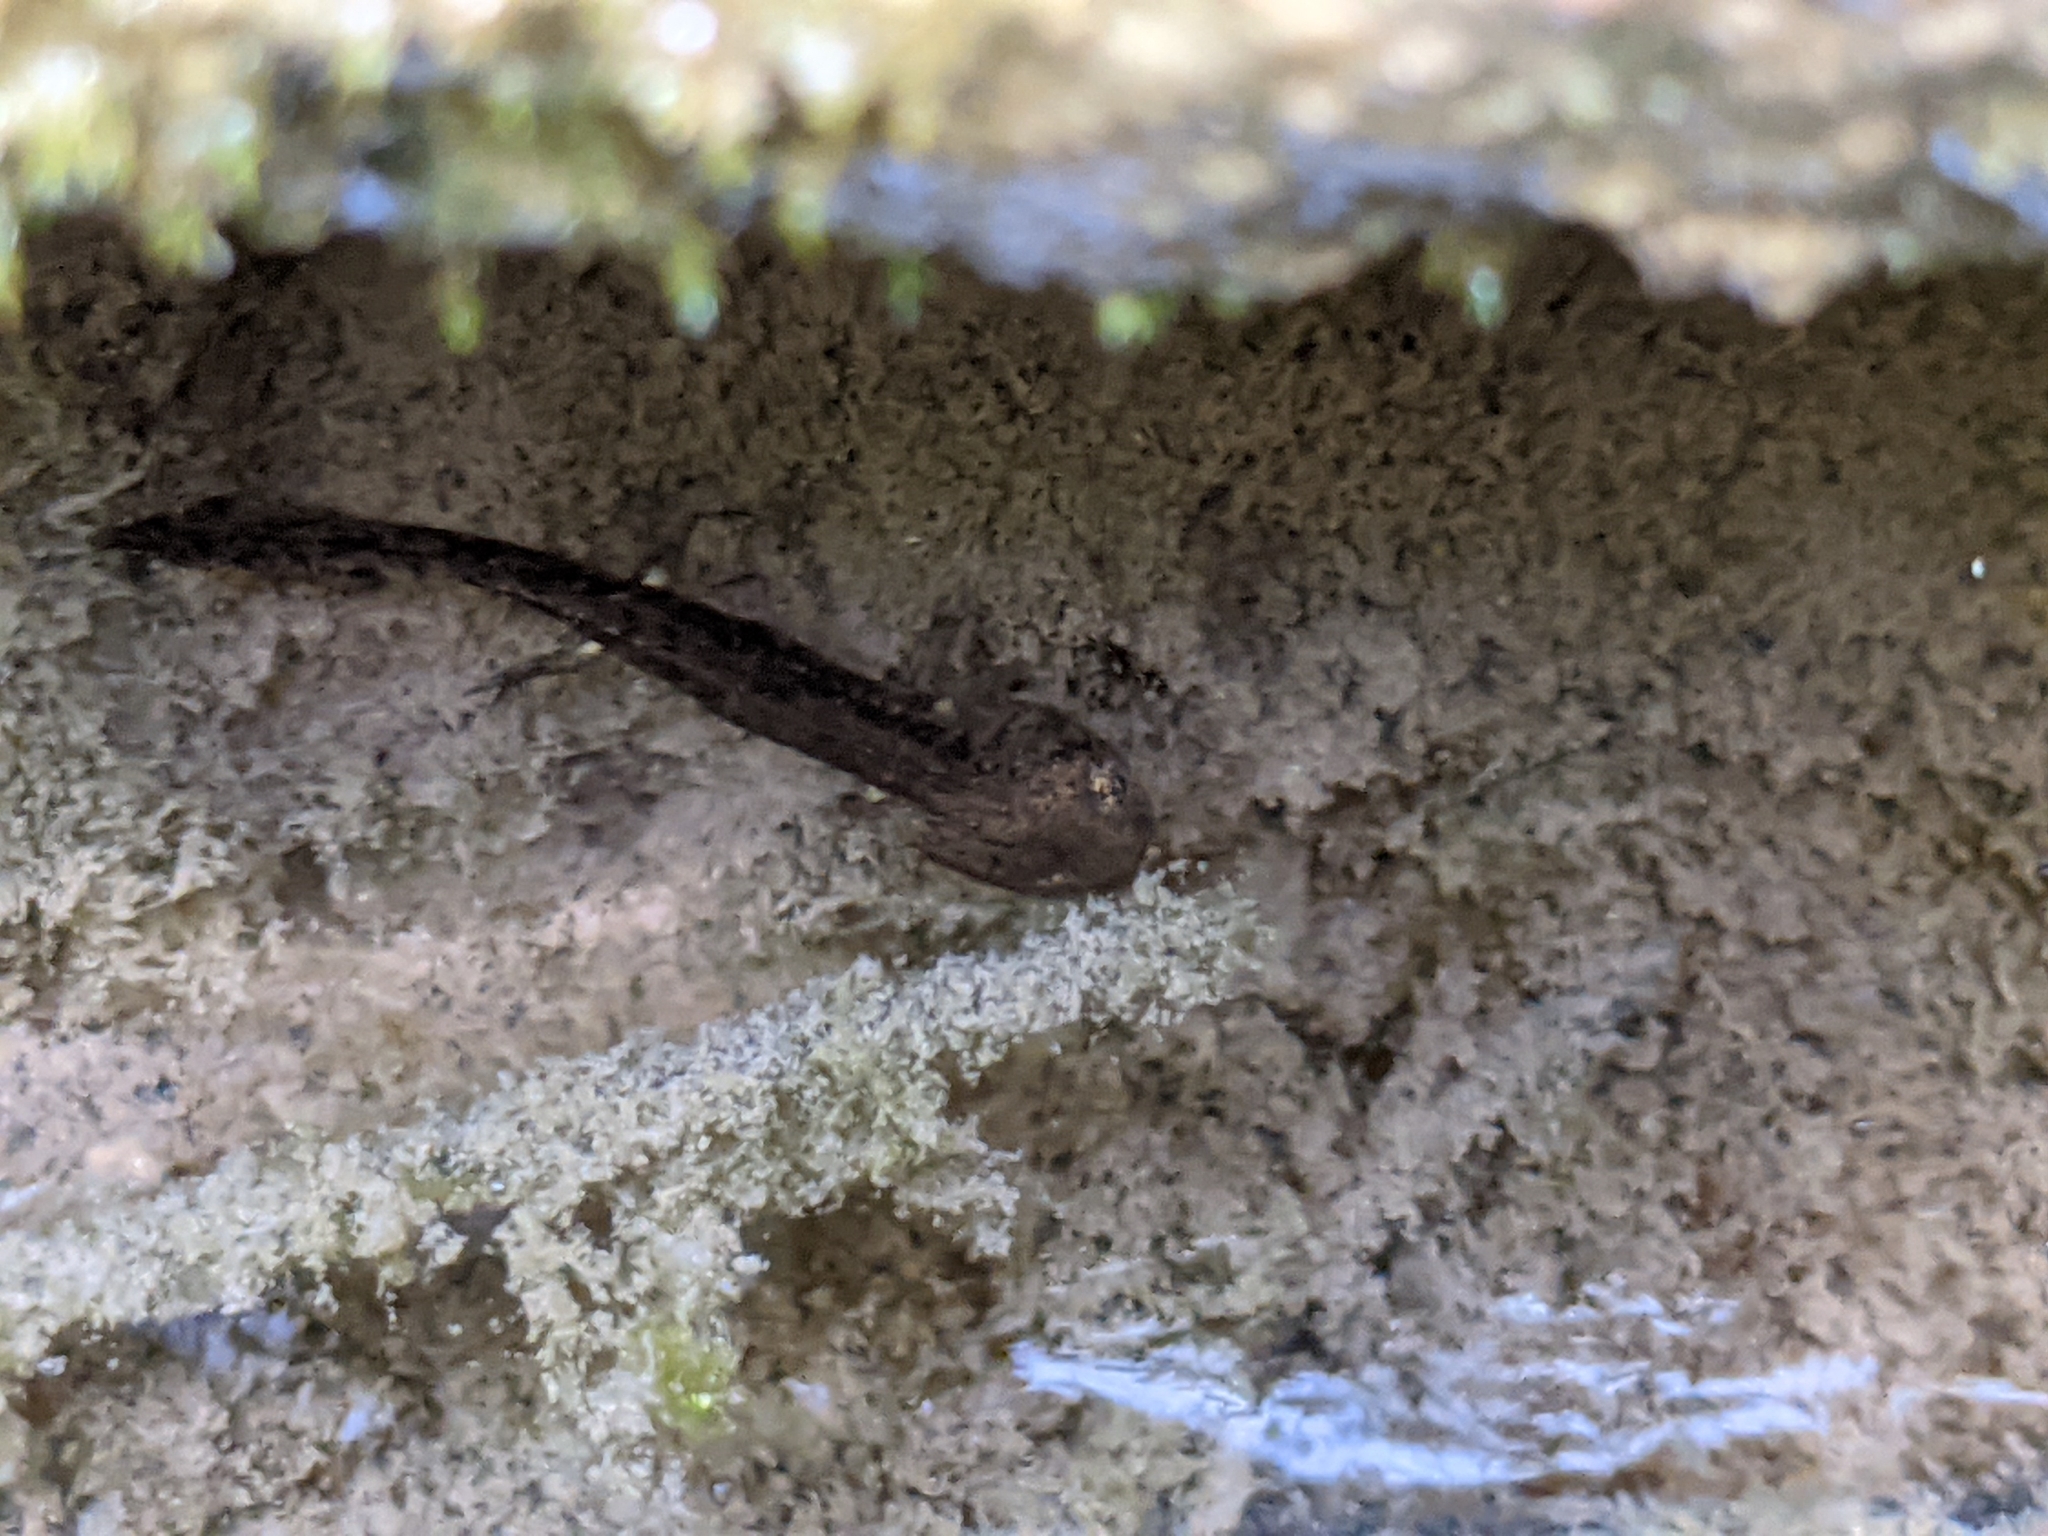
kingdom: Animalia
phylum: Chordata
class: Amphibia
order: Caudata
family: Salamandridae
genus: Salamandra
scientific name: Salamandra salamandra
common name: Fire salamander
